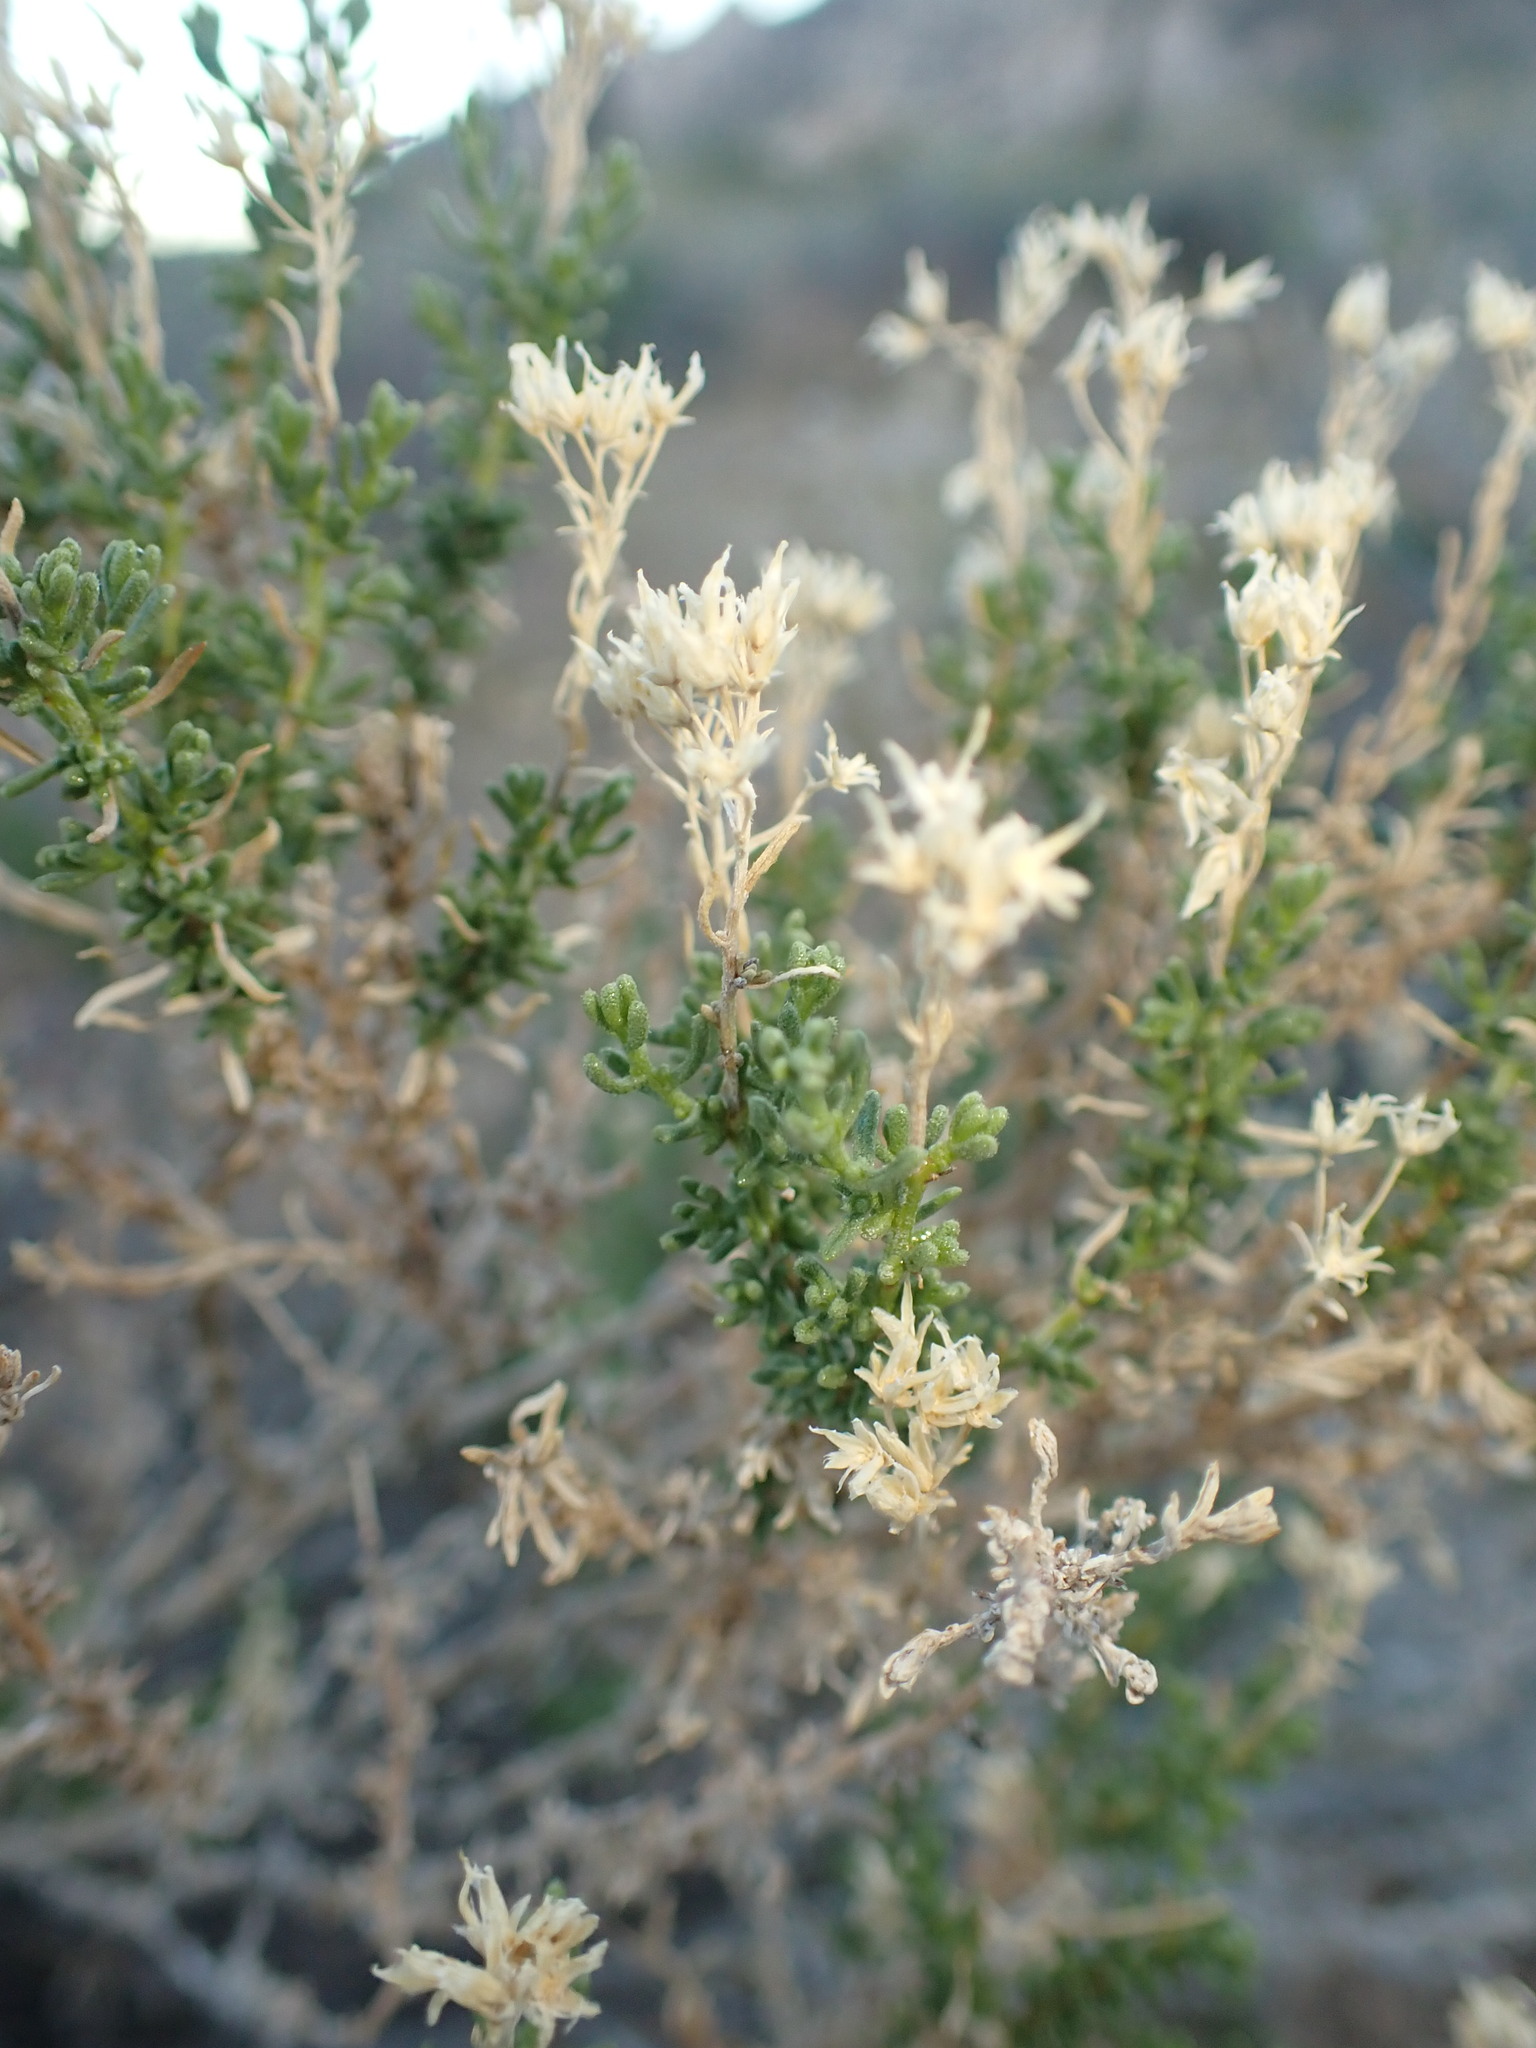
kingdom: Plantae
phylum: Tracheophyta
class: Magnoliopsida
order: Asterales
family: Asteraceae
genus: Ericameria
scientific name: Ericameria cooperi
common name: Cooper's goldenbush
